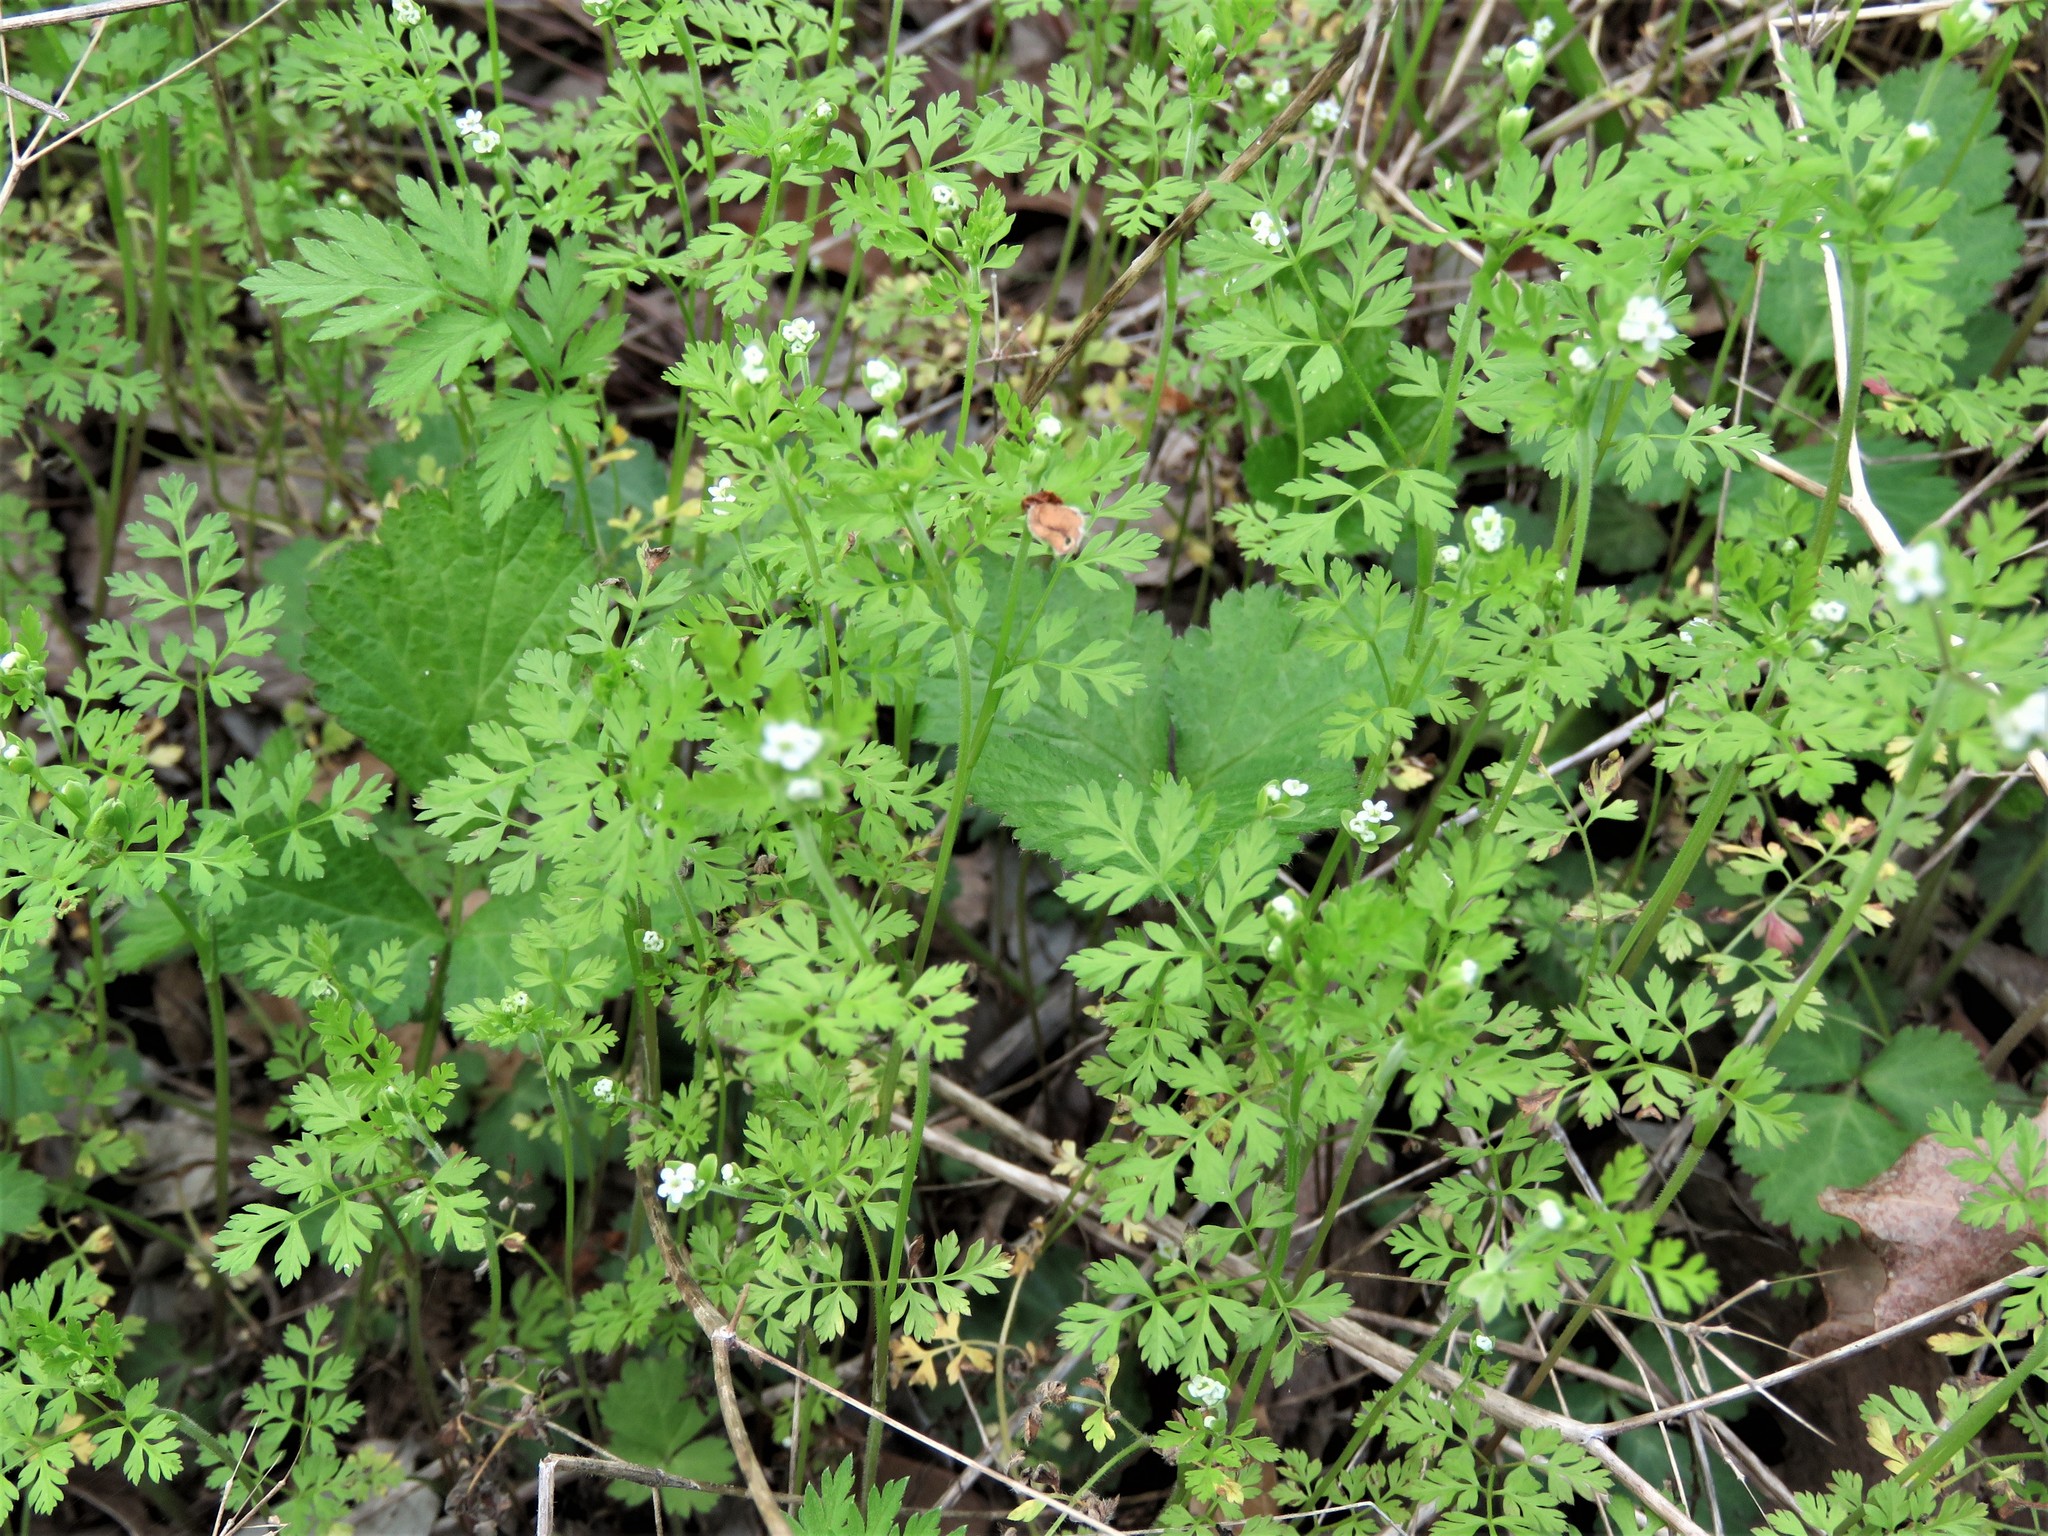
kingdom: Plantae
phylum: Tracheophyta
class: Magnoliopsida
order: Apiales
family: Apiaceae
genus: Chaerophyllum
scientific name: Chaerophyllum tainturieri
